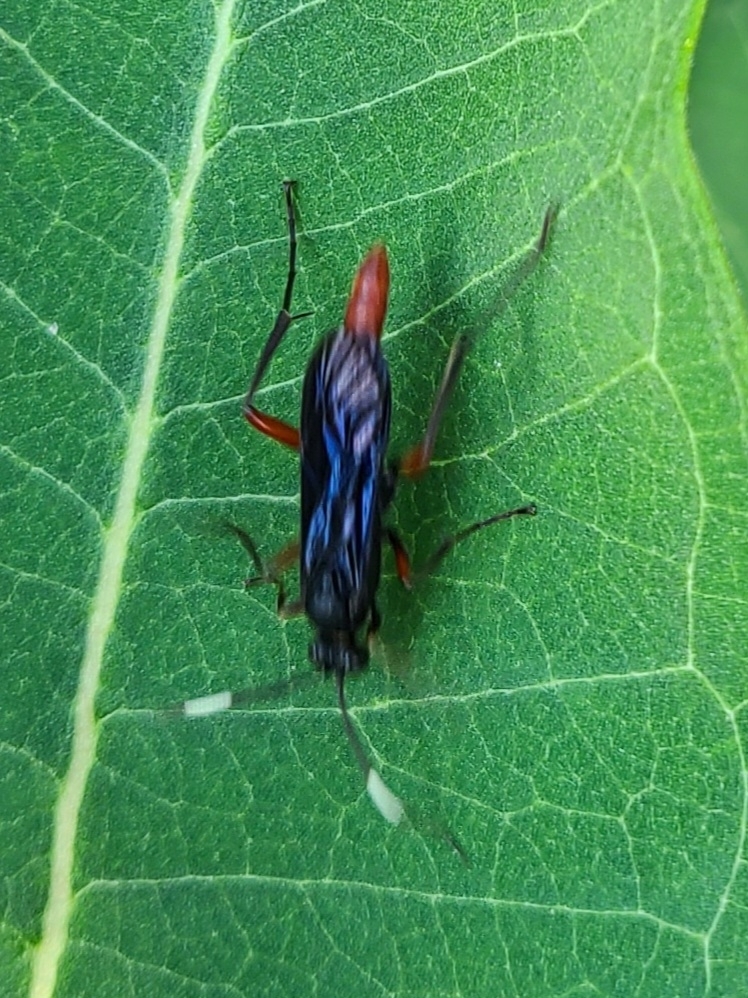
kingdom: Animalia
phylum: Arthropoda
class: Insecta
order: Hymenoptera
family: Ichneumonidae
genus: Limonethe
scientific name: Limonethe maurator
